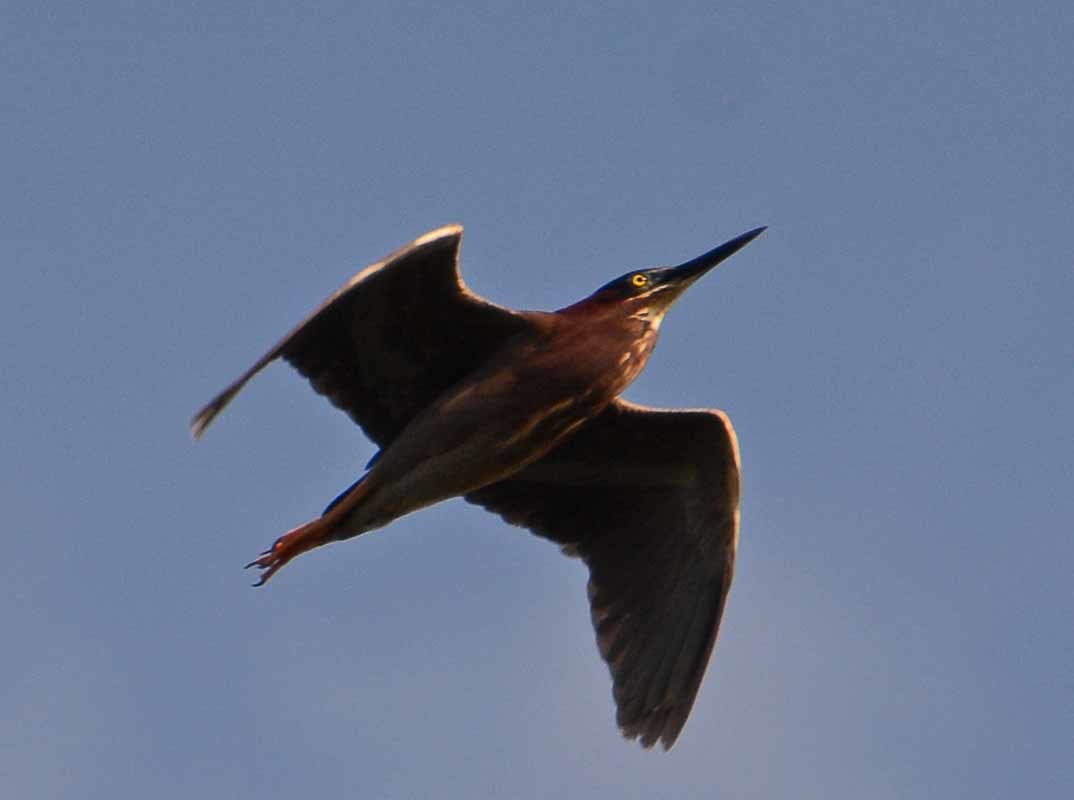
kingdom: Animalia
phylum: Chordata
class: Aves
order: Pelecaniformes
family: Ardeidae
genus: Butorides
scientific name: Butorides virescens
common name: Green heron
